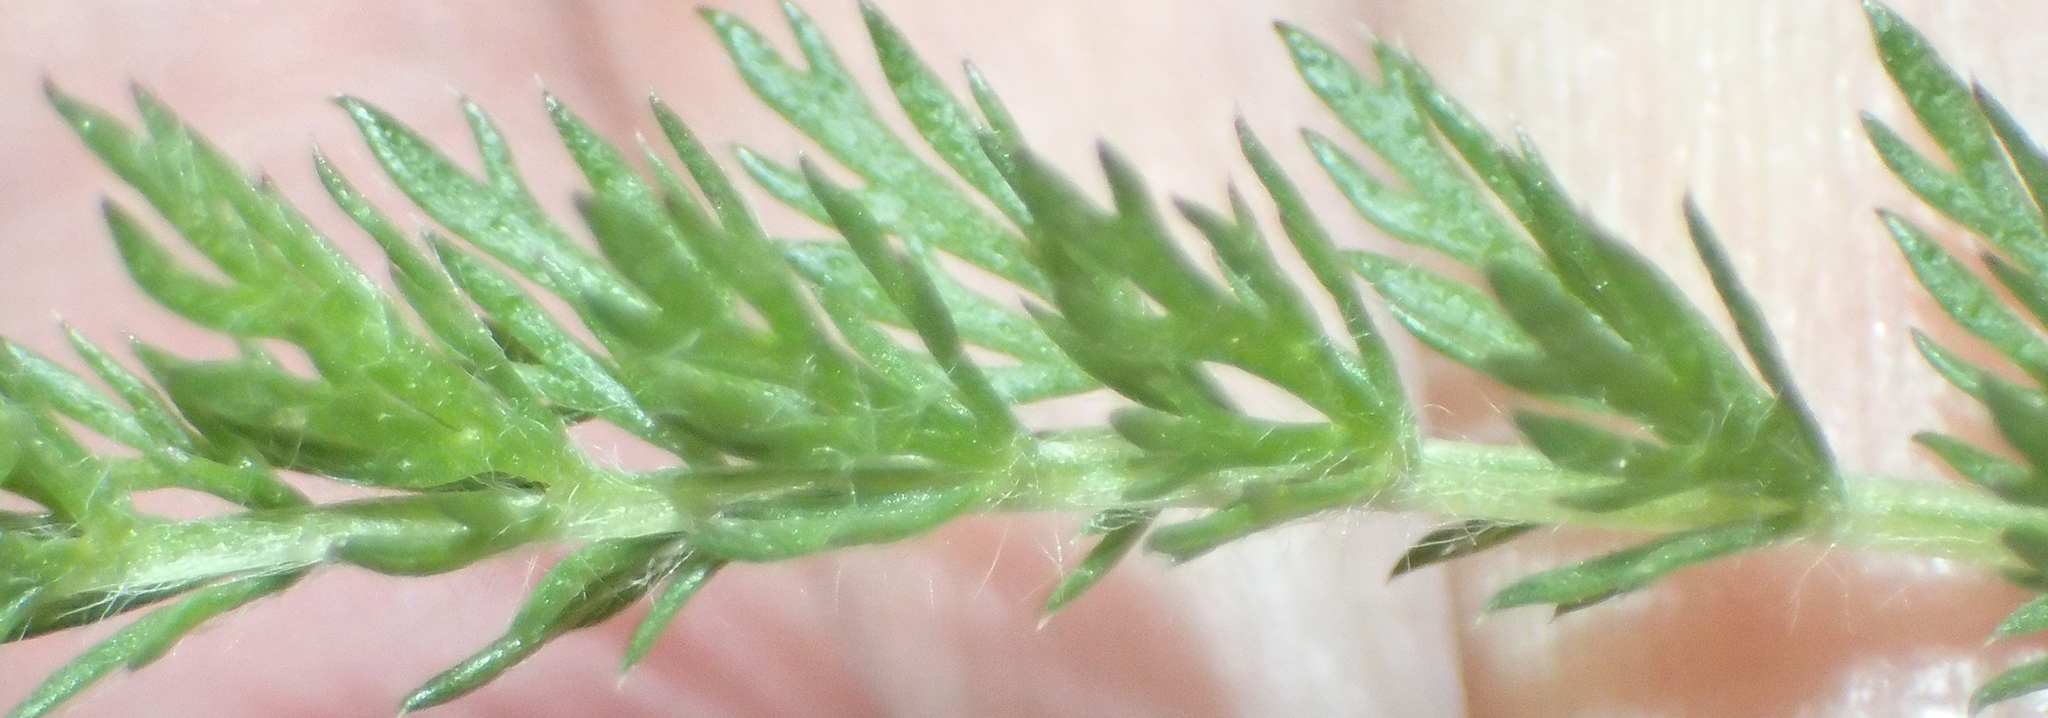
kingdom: Plantae
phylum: Tracheophyta
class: Magnoliopsida
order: Asterales
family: Asteraceae
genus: Achillea
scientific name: Achillea millefolium
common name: Yarrow
